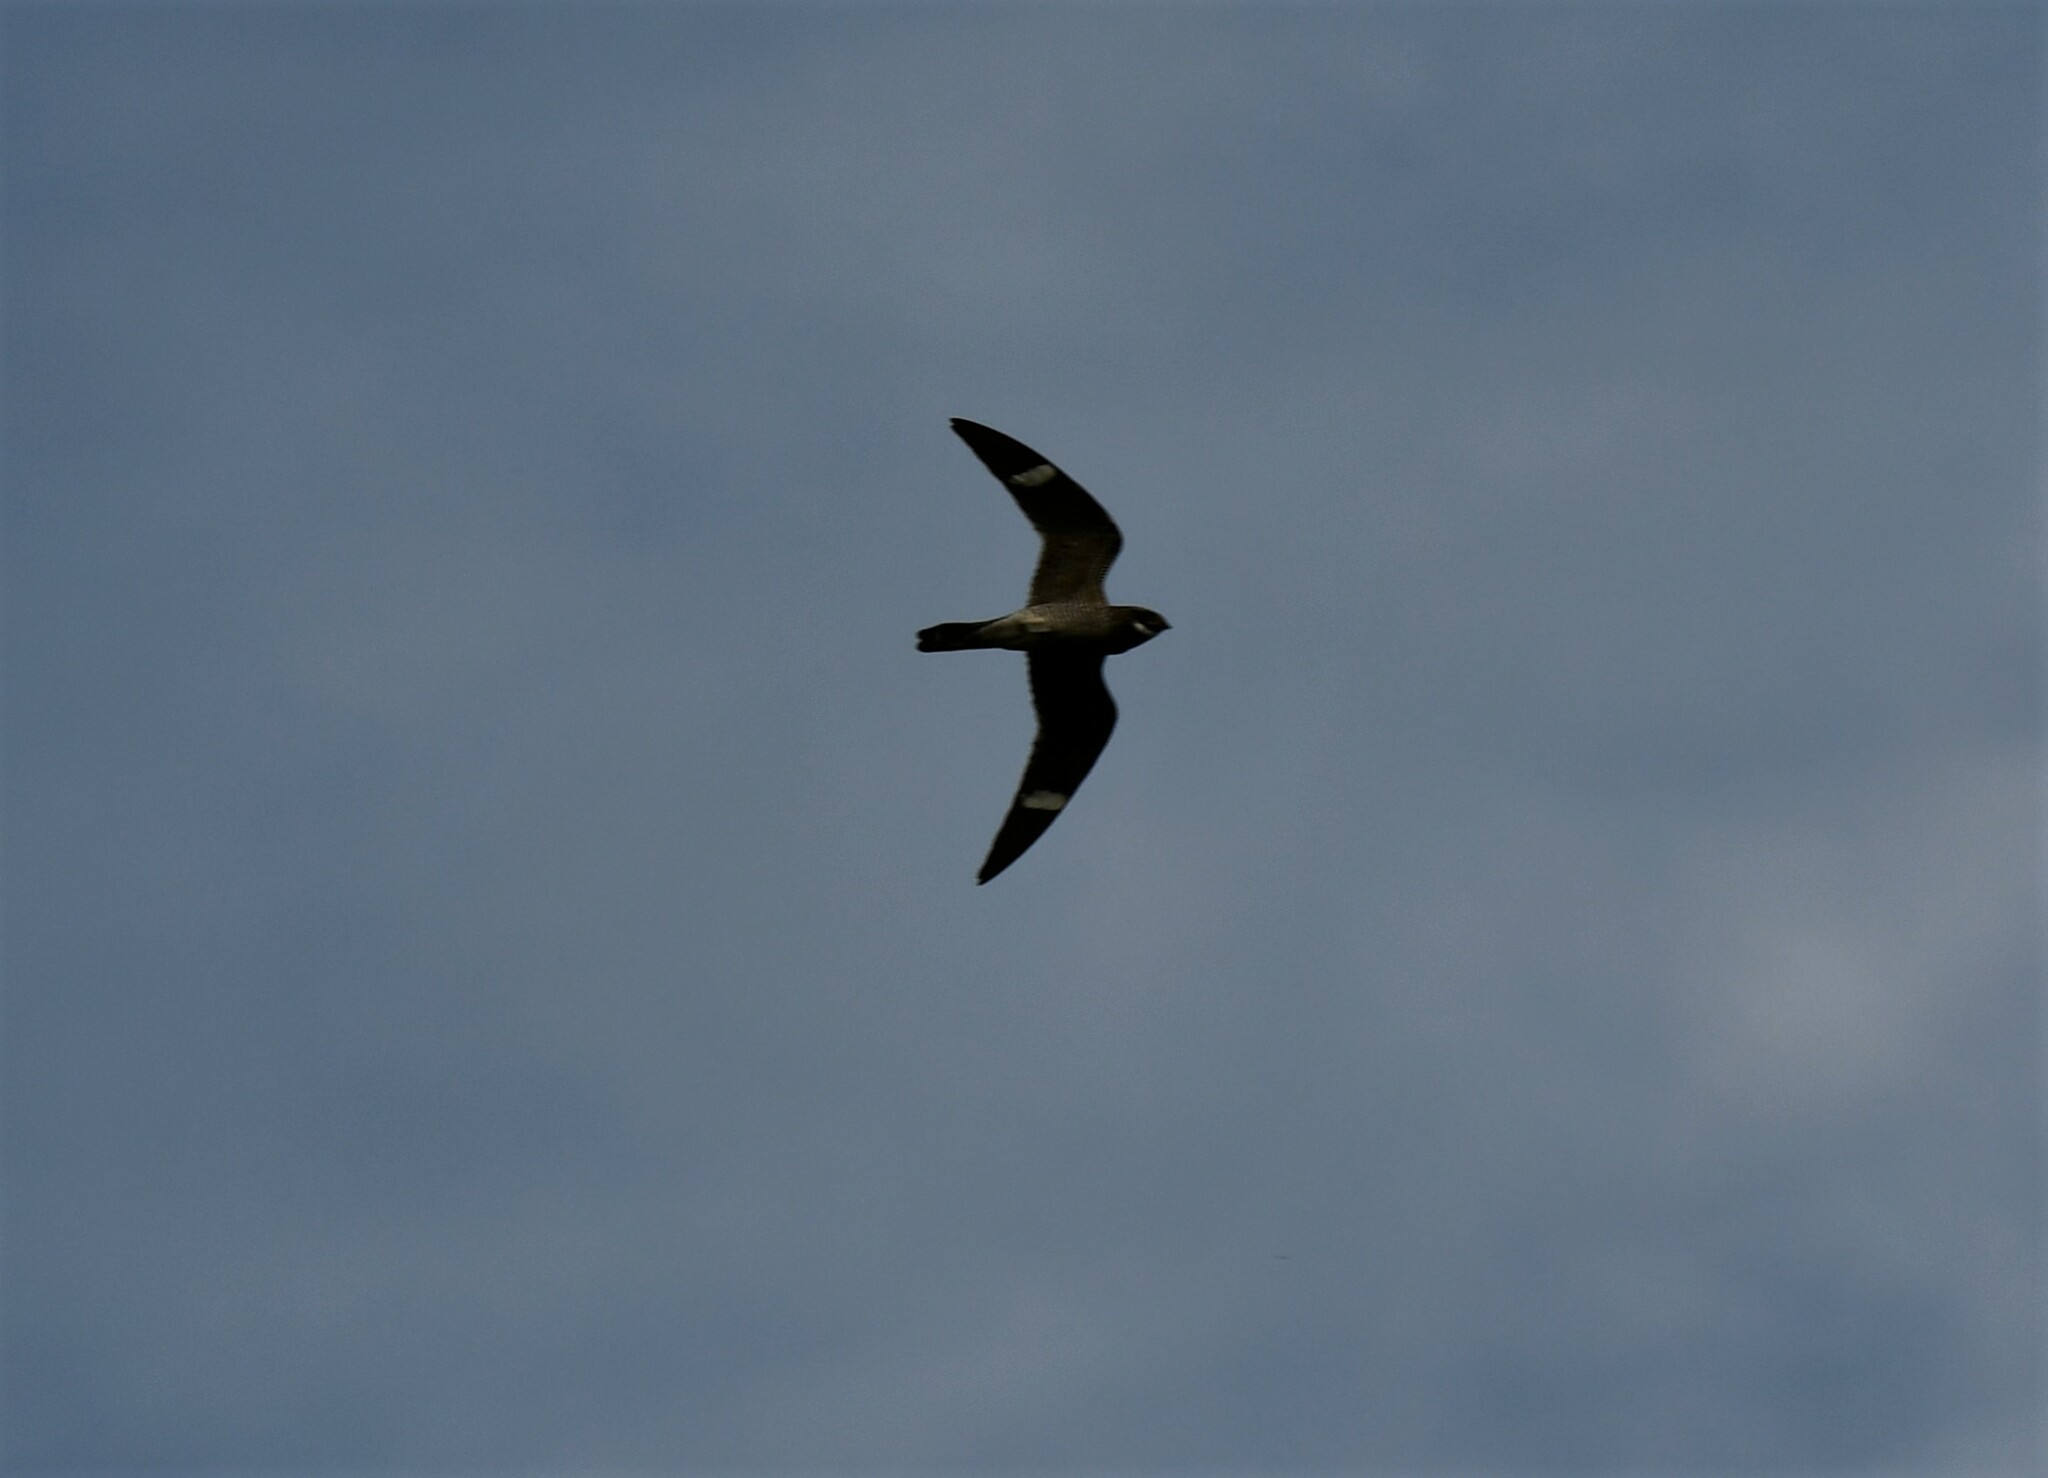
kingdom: Animalia
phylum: Chordata
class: Aves
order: Caprimulgiformes
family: Caprimulgidae
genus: Chordeiles
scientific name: Chordeiles minor
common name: Common nighthawk
